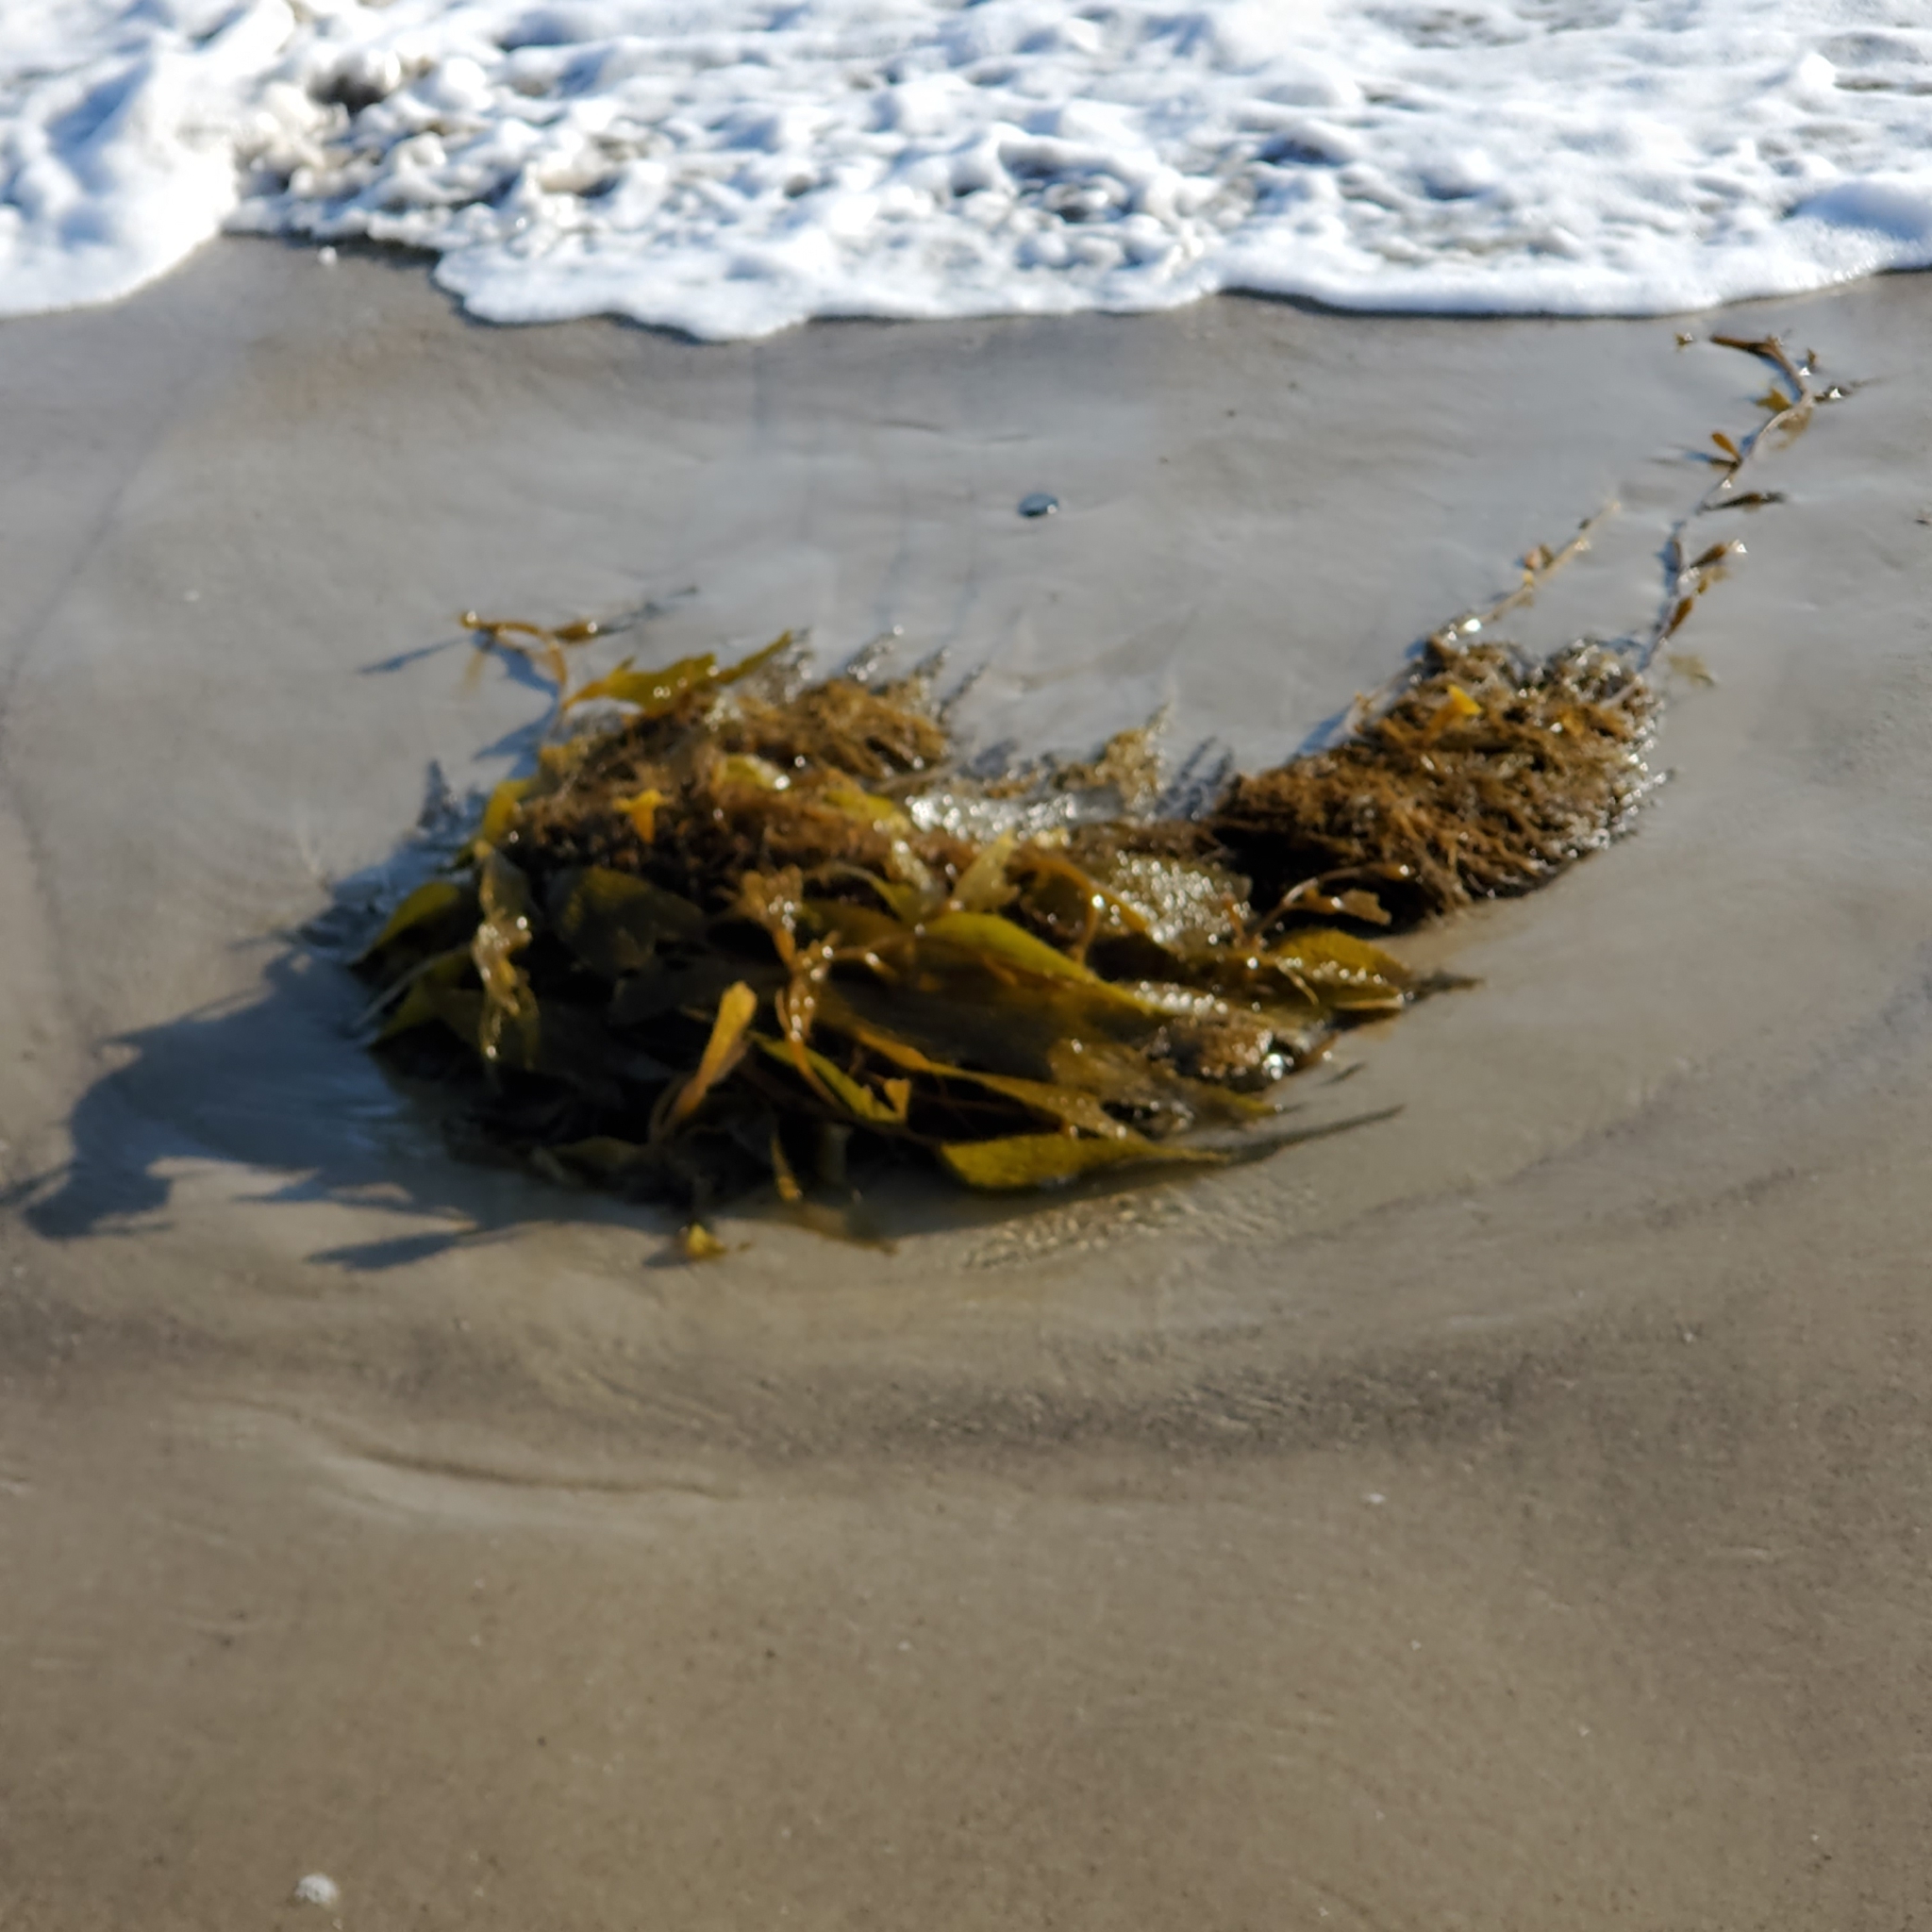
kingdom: Chromista
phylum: Ochrophyta
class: Phaeophyceae
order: Laminariales
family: Laminariaceae
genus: Macrocystis
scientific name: Macrocystis pyrifera
